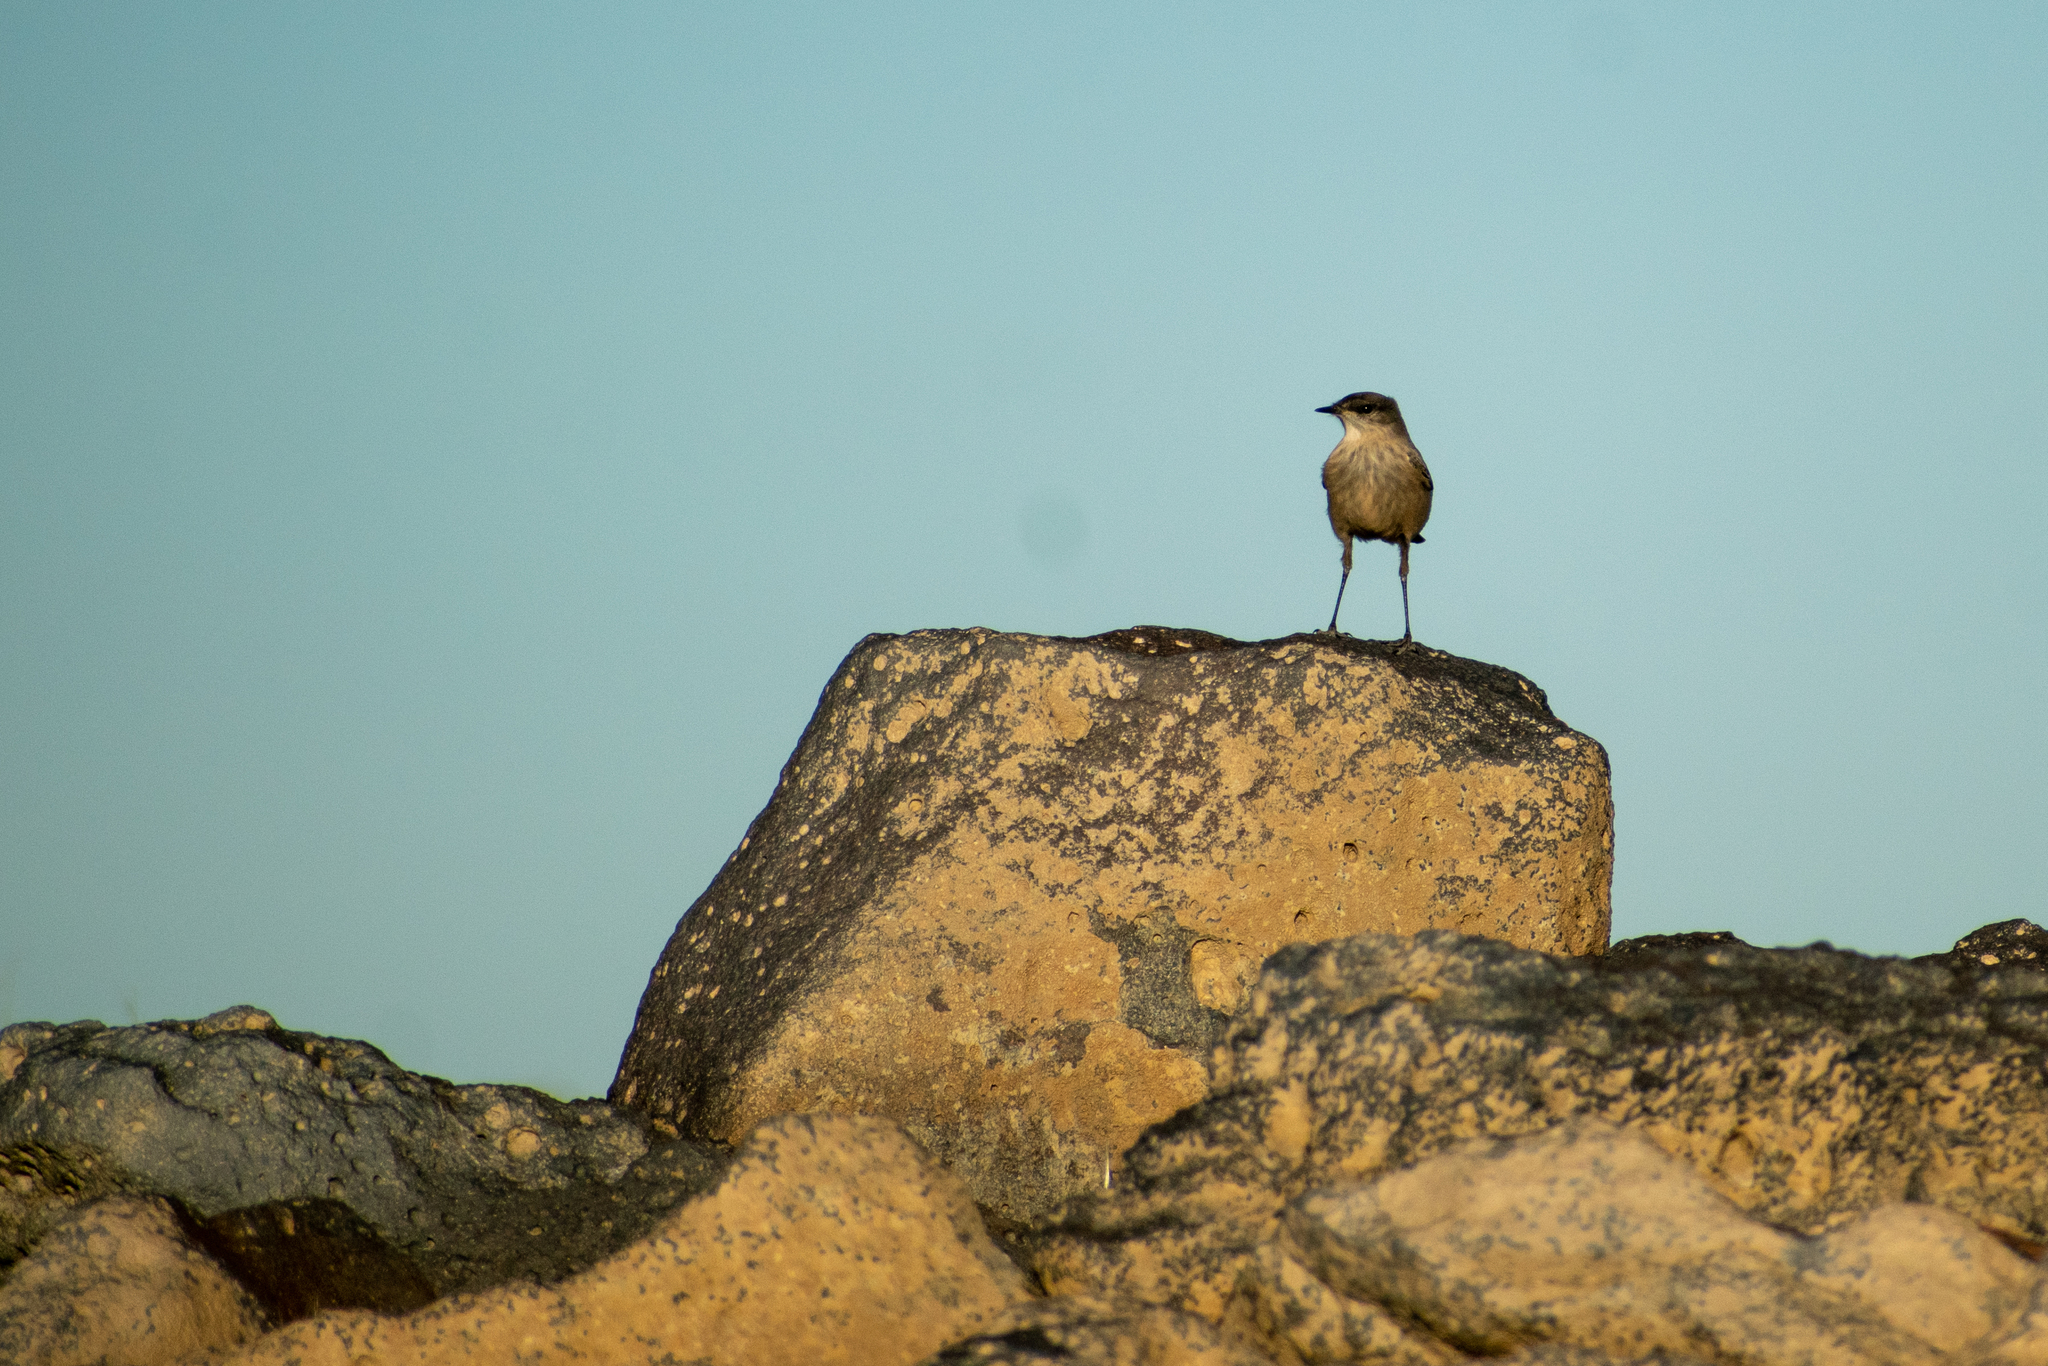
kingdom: Animalia
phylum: Chordata
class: Aves
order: Passeriformes
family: Tyrannidae
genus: Muscisaxicola
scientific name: Muscisaxicola capistratus
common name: Cinnamon-bellied ground tyrant
